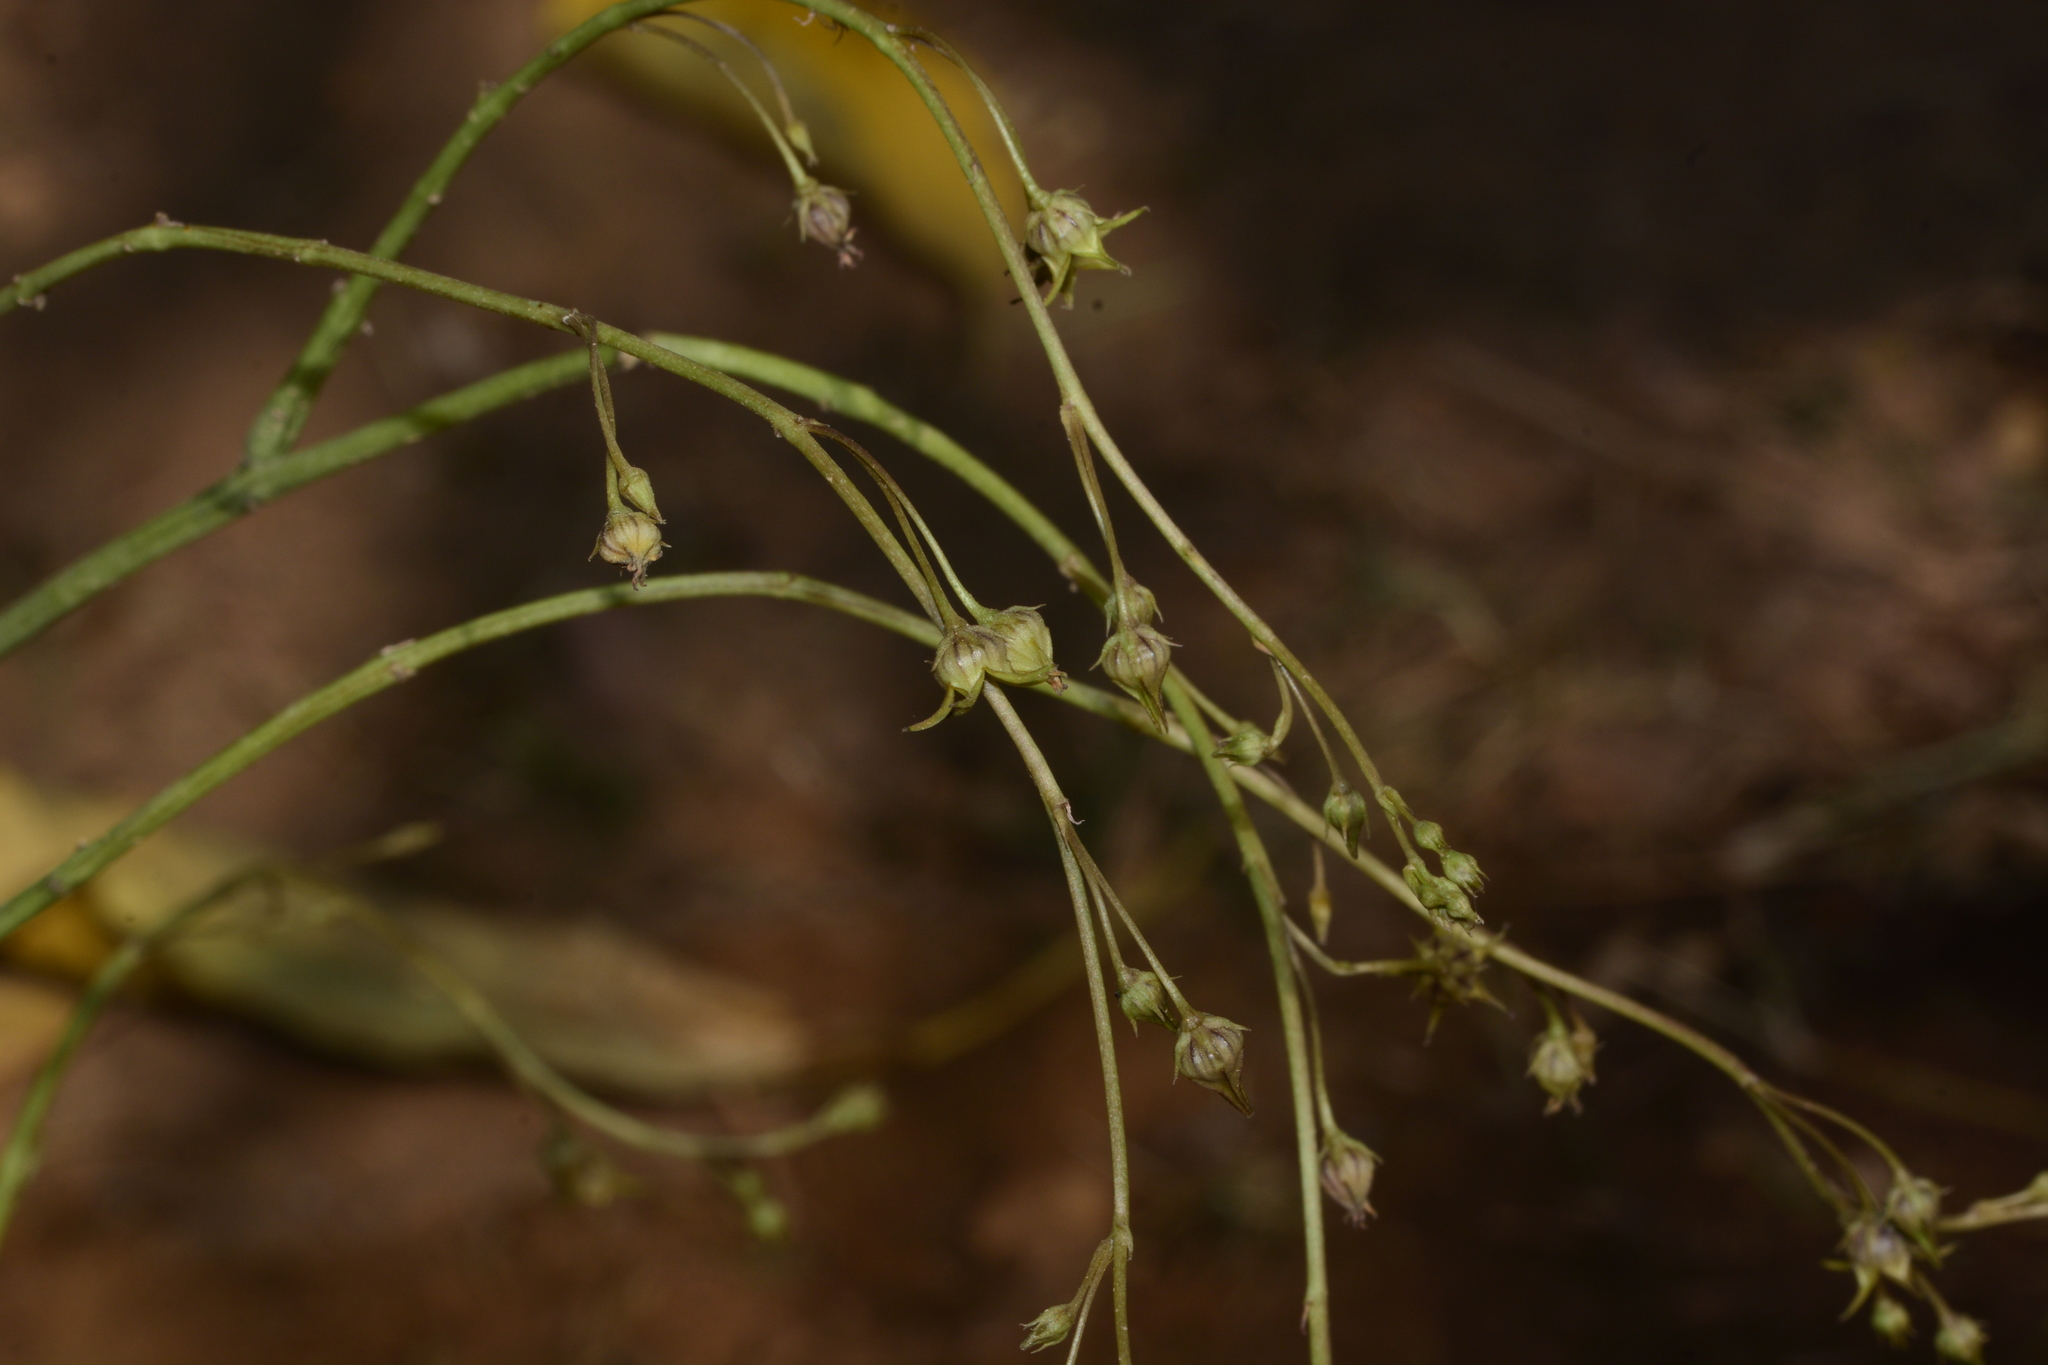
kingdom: Plantae
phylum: Tracheophyta
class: Magnoliopsida
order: Gentianales
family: Apocynaceae
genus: Ceropegia
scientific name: Ceropegia edulis
